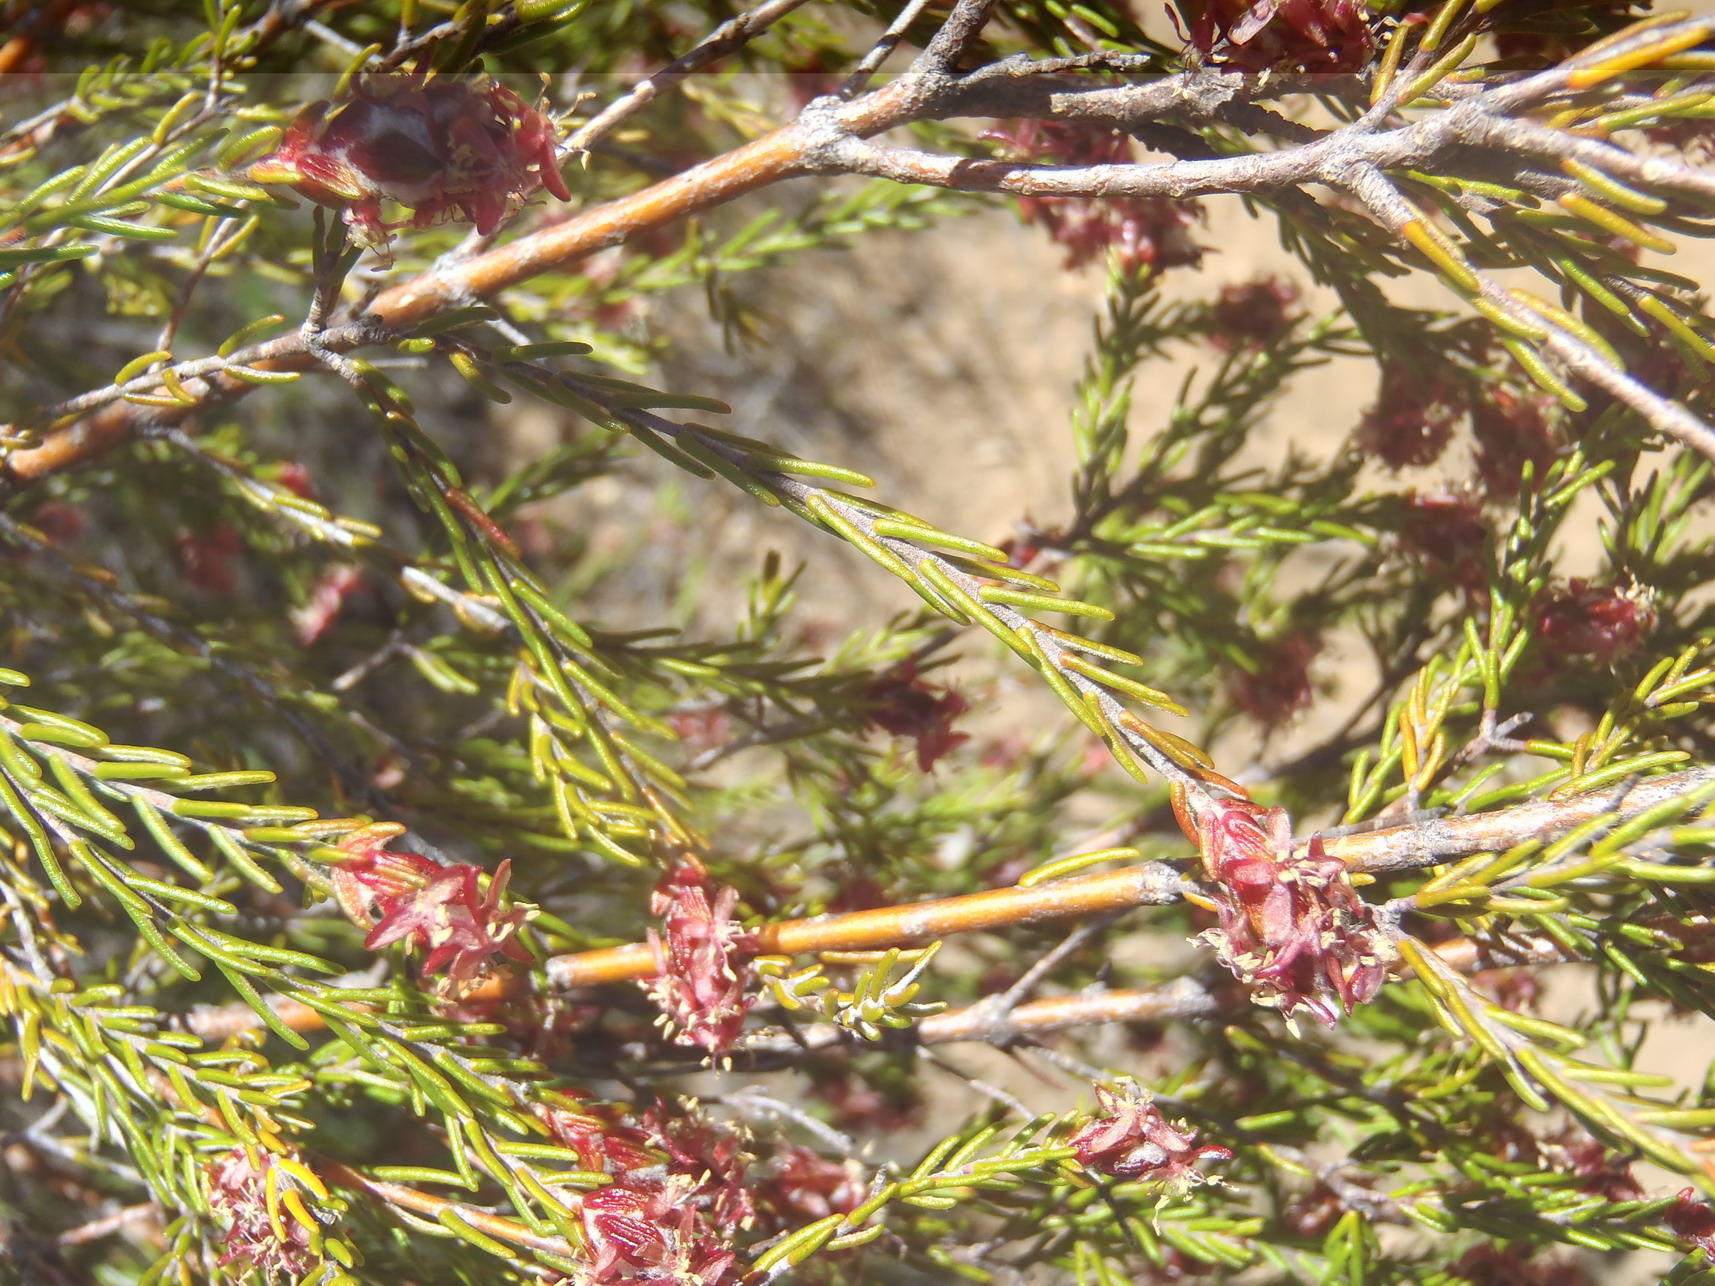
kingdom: Plantae
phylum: Tracheophyta
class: Magnoliopsida
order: Malvales
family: Thymelaeaceae
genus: Passerina
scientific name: Passerina obtusifolia
